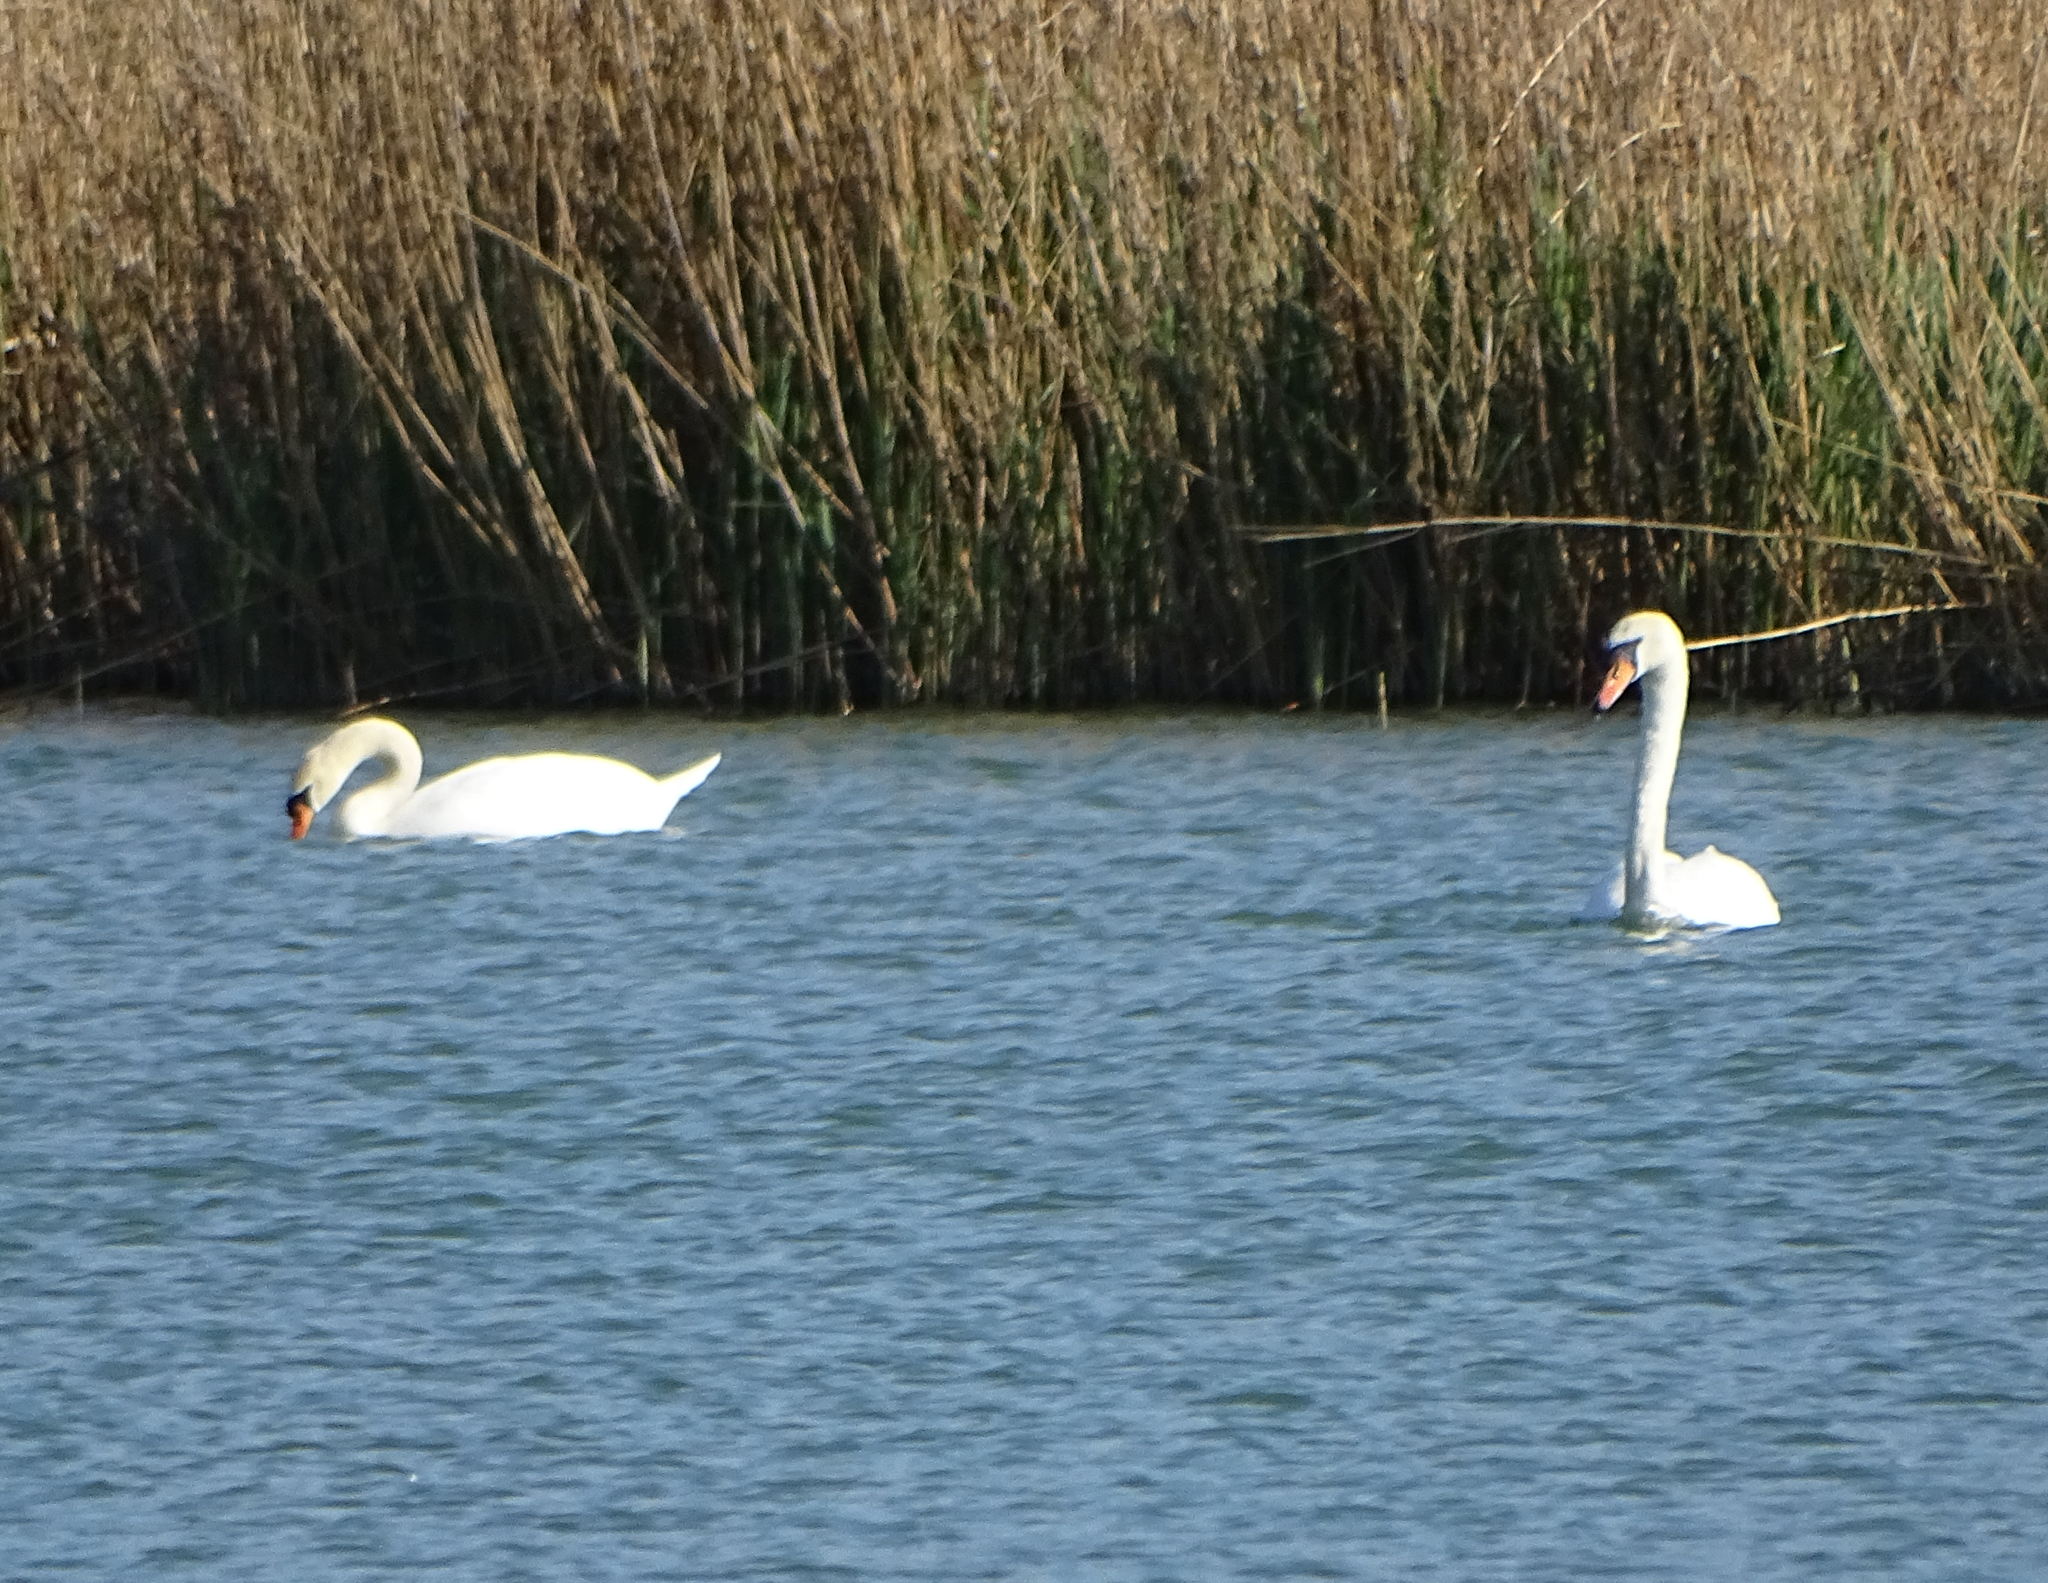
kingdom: Animalia
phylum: Chordata
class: Aves
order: Anseriformes
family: Anatidae
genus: Cygnus
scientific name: Cygnus olor
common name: Mute swan
